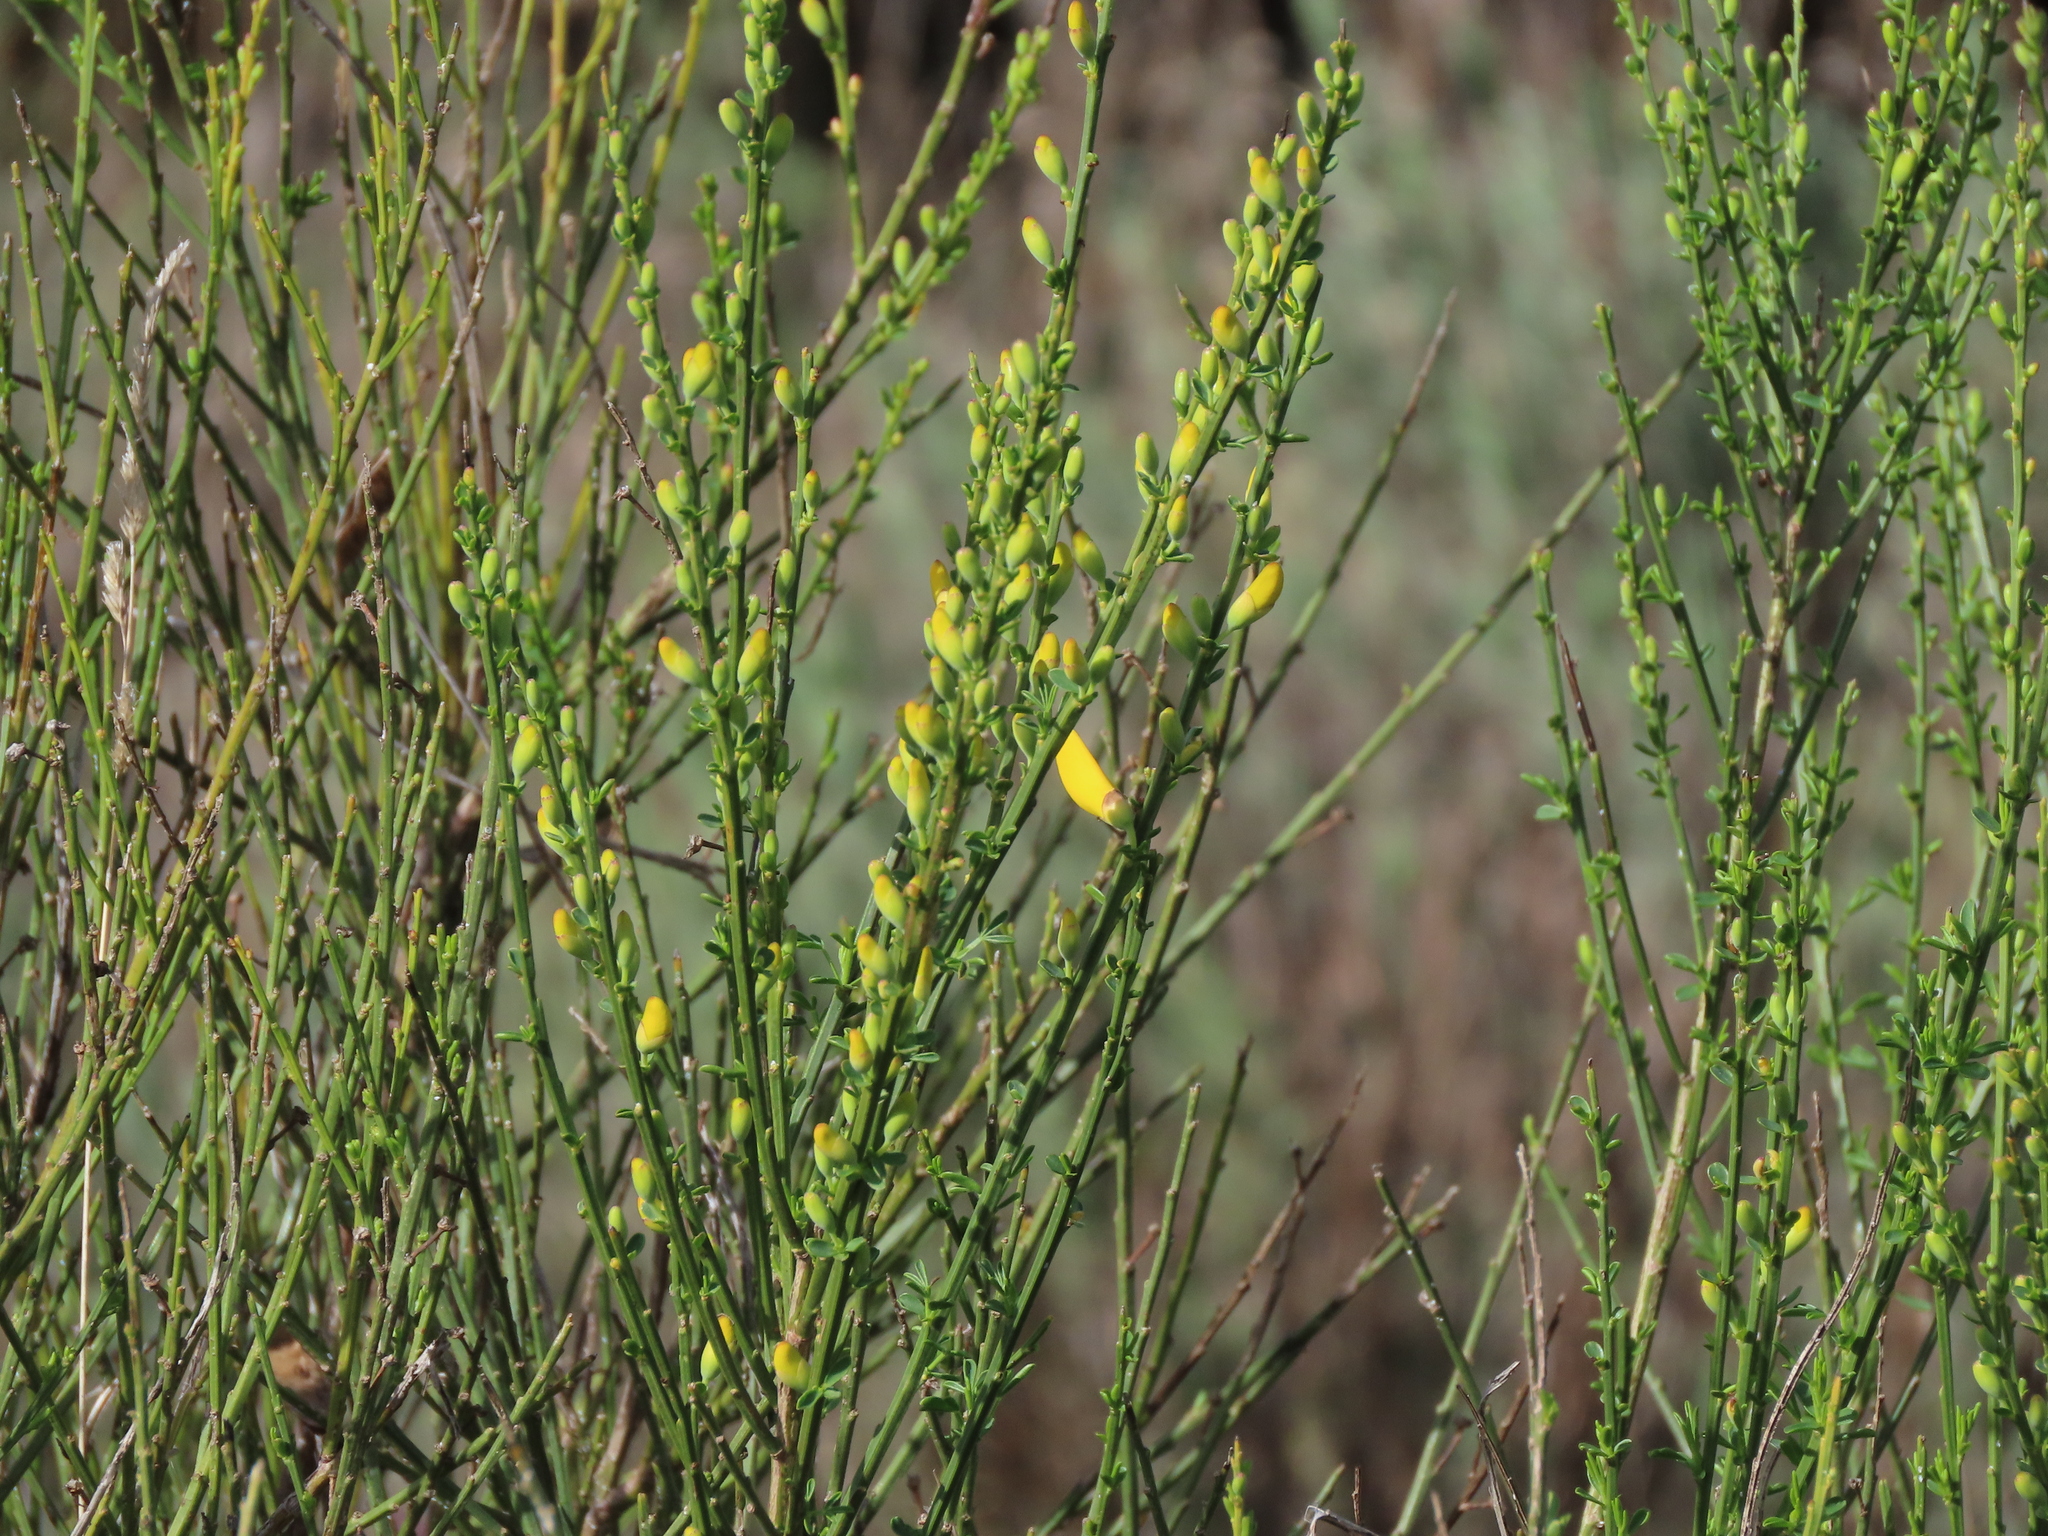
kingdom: Plantae
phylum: Tracheophyta
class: Magnoliopsida
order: Fabales
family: Fabaceae
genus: Cytisus
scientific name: Cytisus scoparius
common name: Scotch broom
